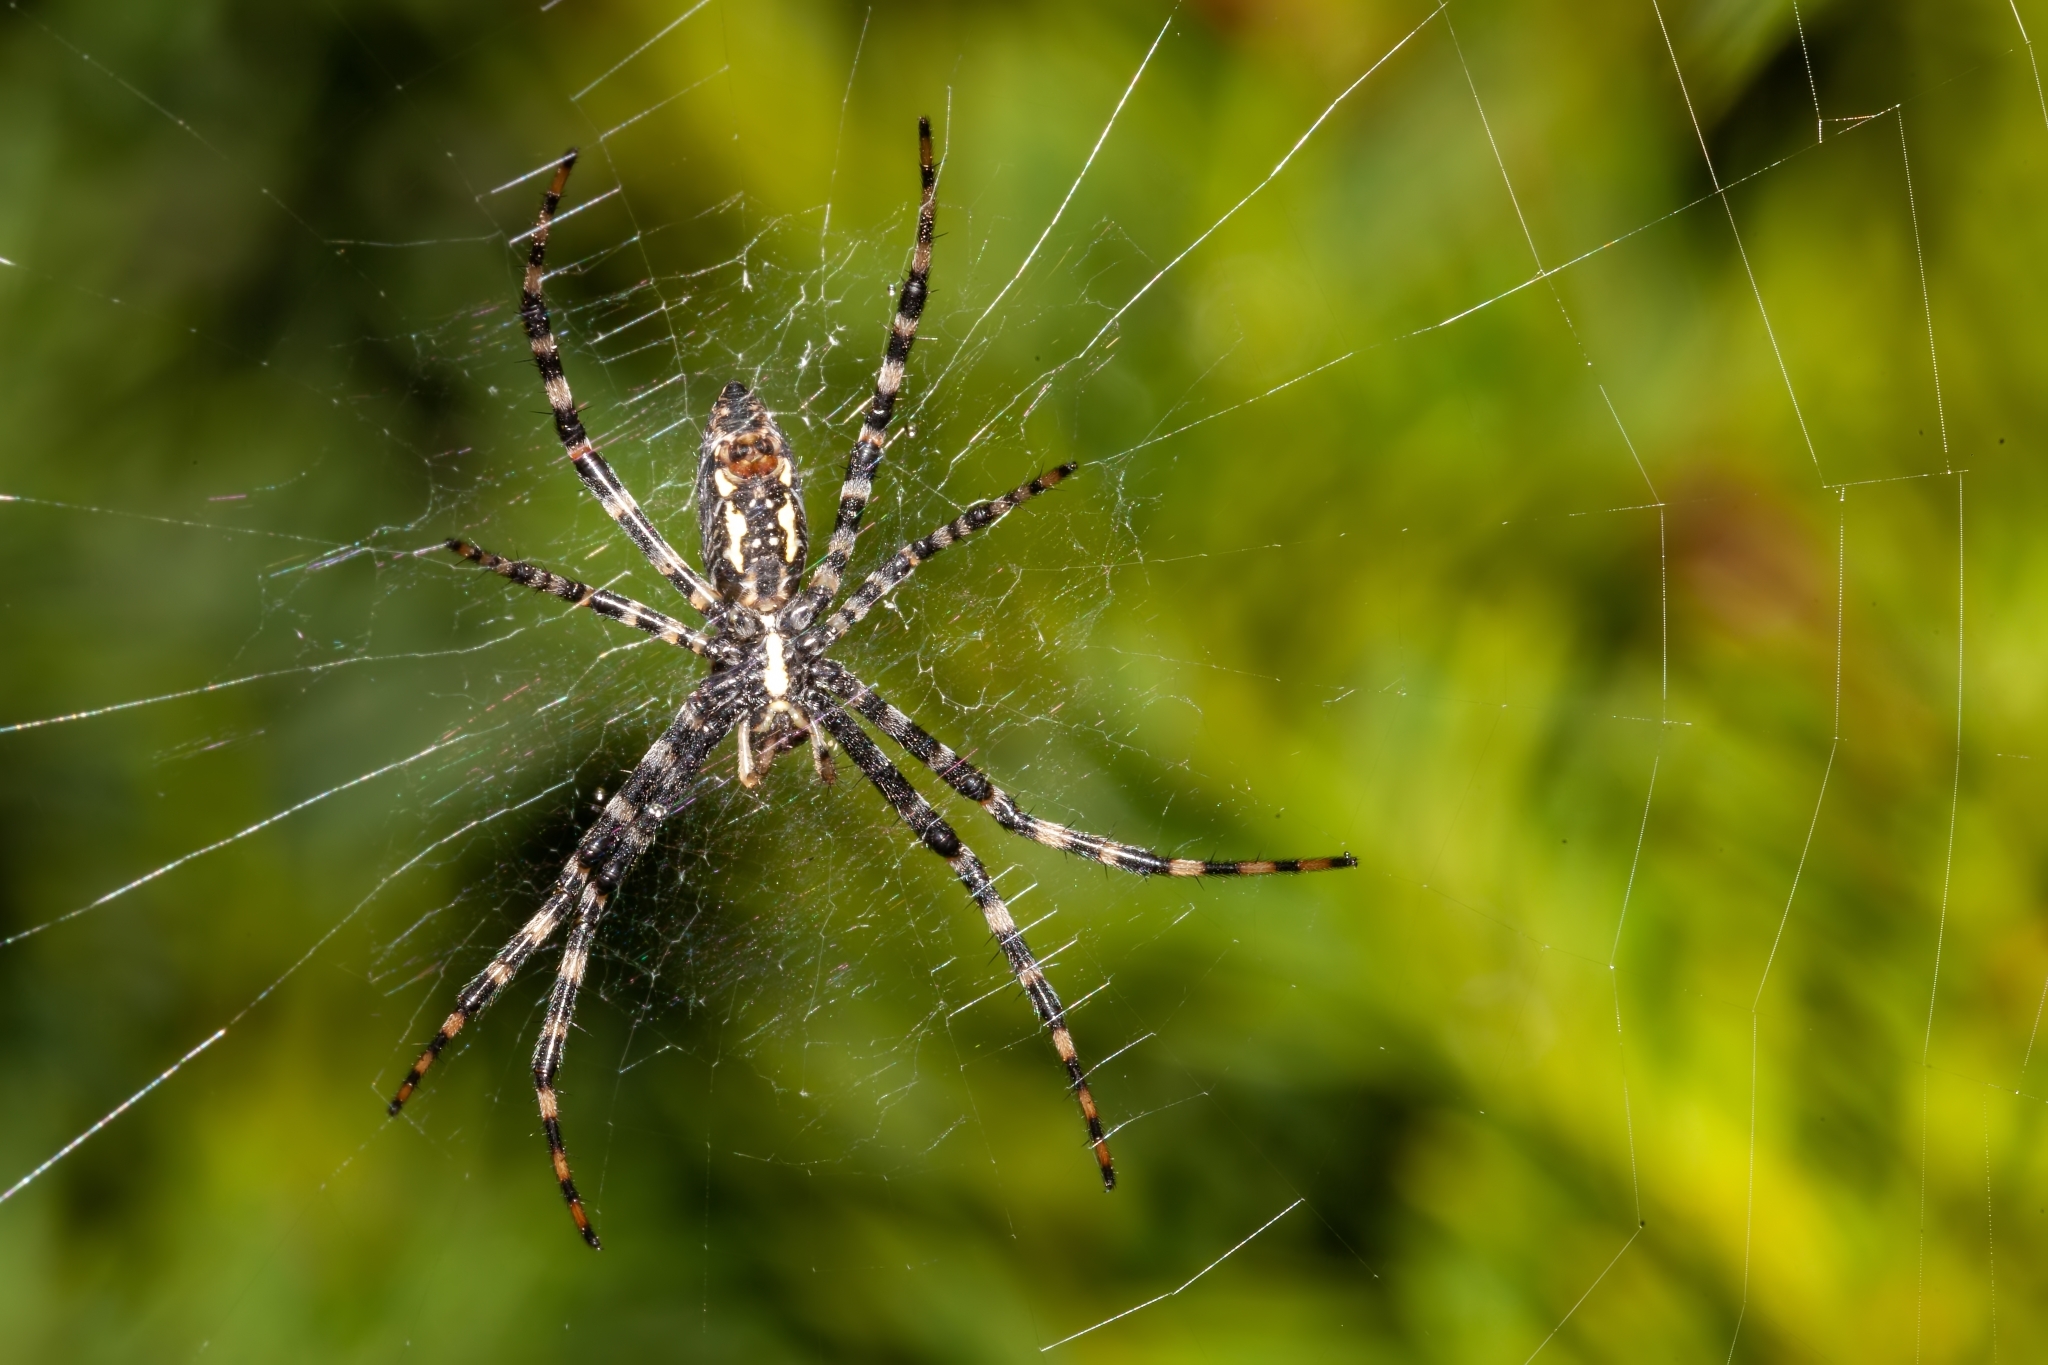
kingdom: Animalia
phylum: Arthropoda
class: Arachnida
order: Araneae
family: Araneidae
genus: Argiope
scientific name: Argiope aurantia
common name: Orb weavers
